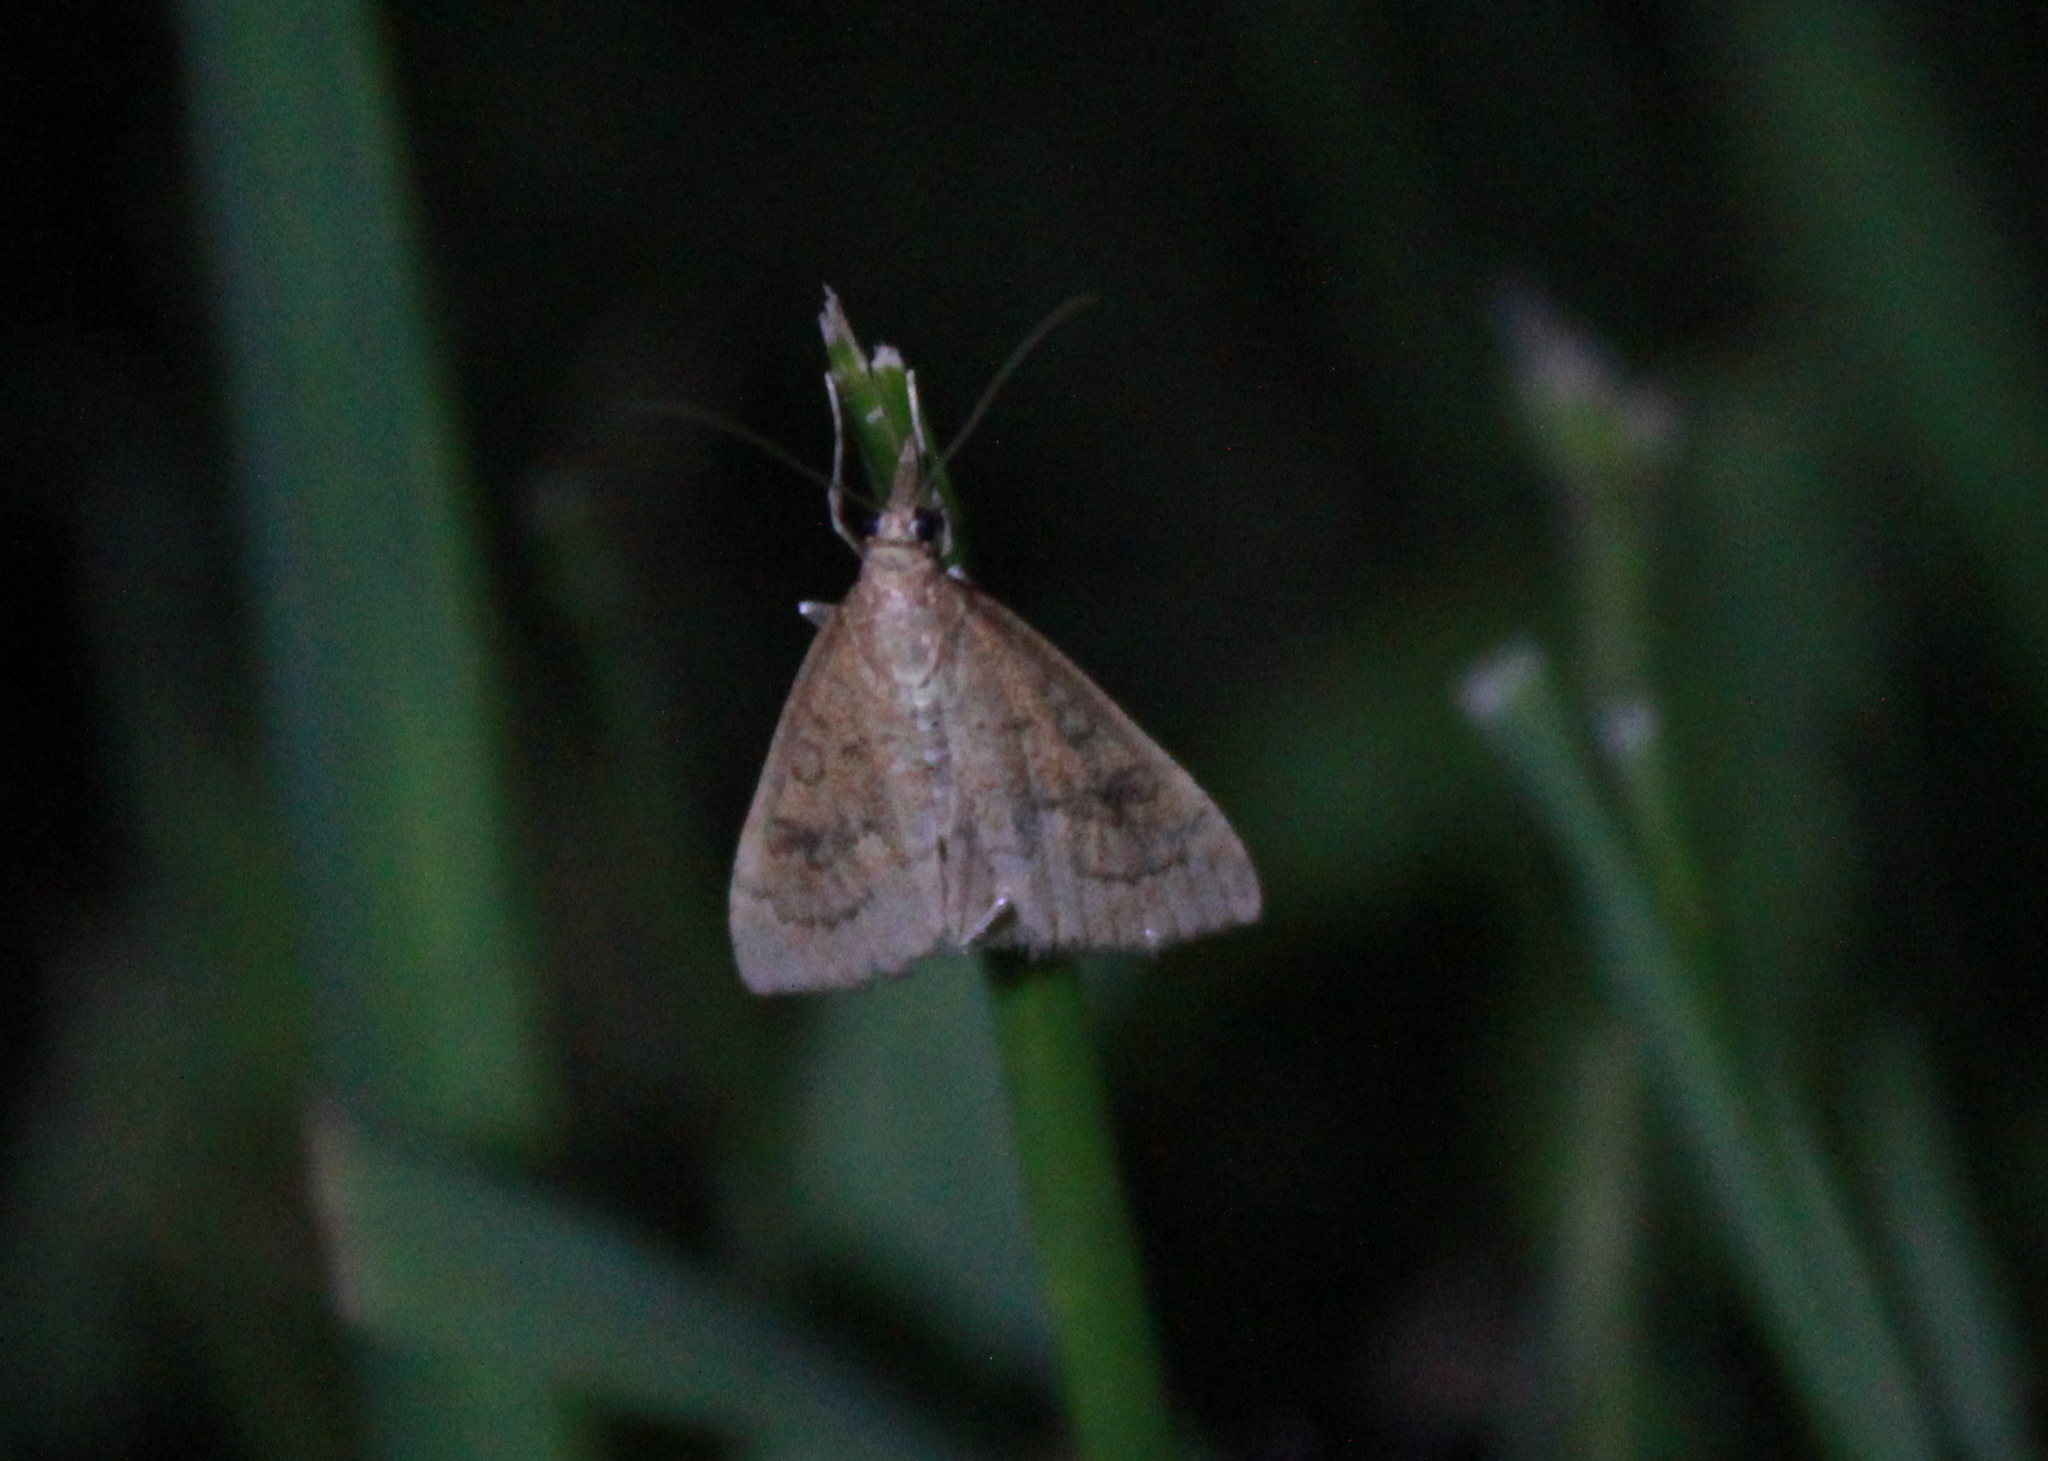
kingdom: Animalia
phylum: Arthropoda
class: Insecta
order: Lepidoptera
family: Crambidae
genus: Udea
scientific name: Udea rubigalis
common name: Celery leaftier moth
